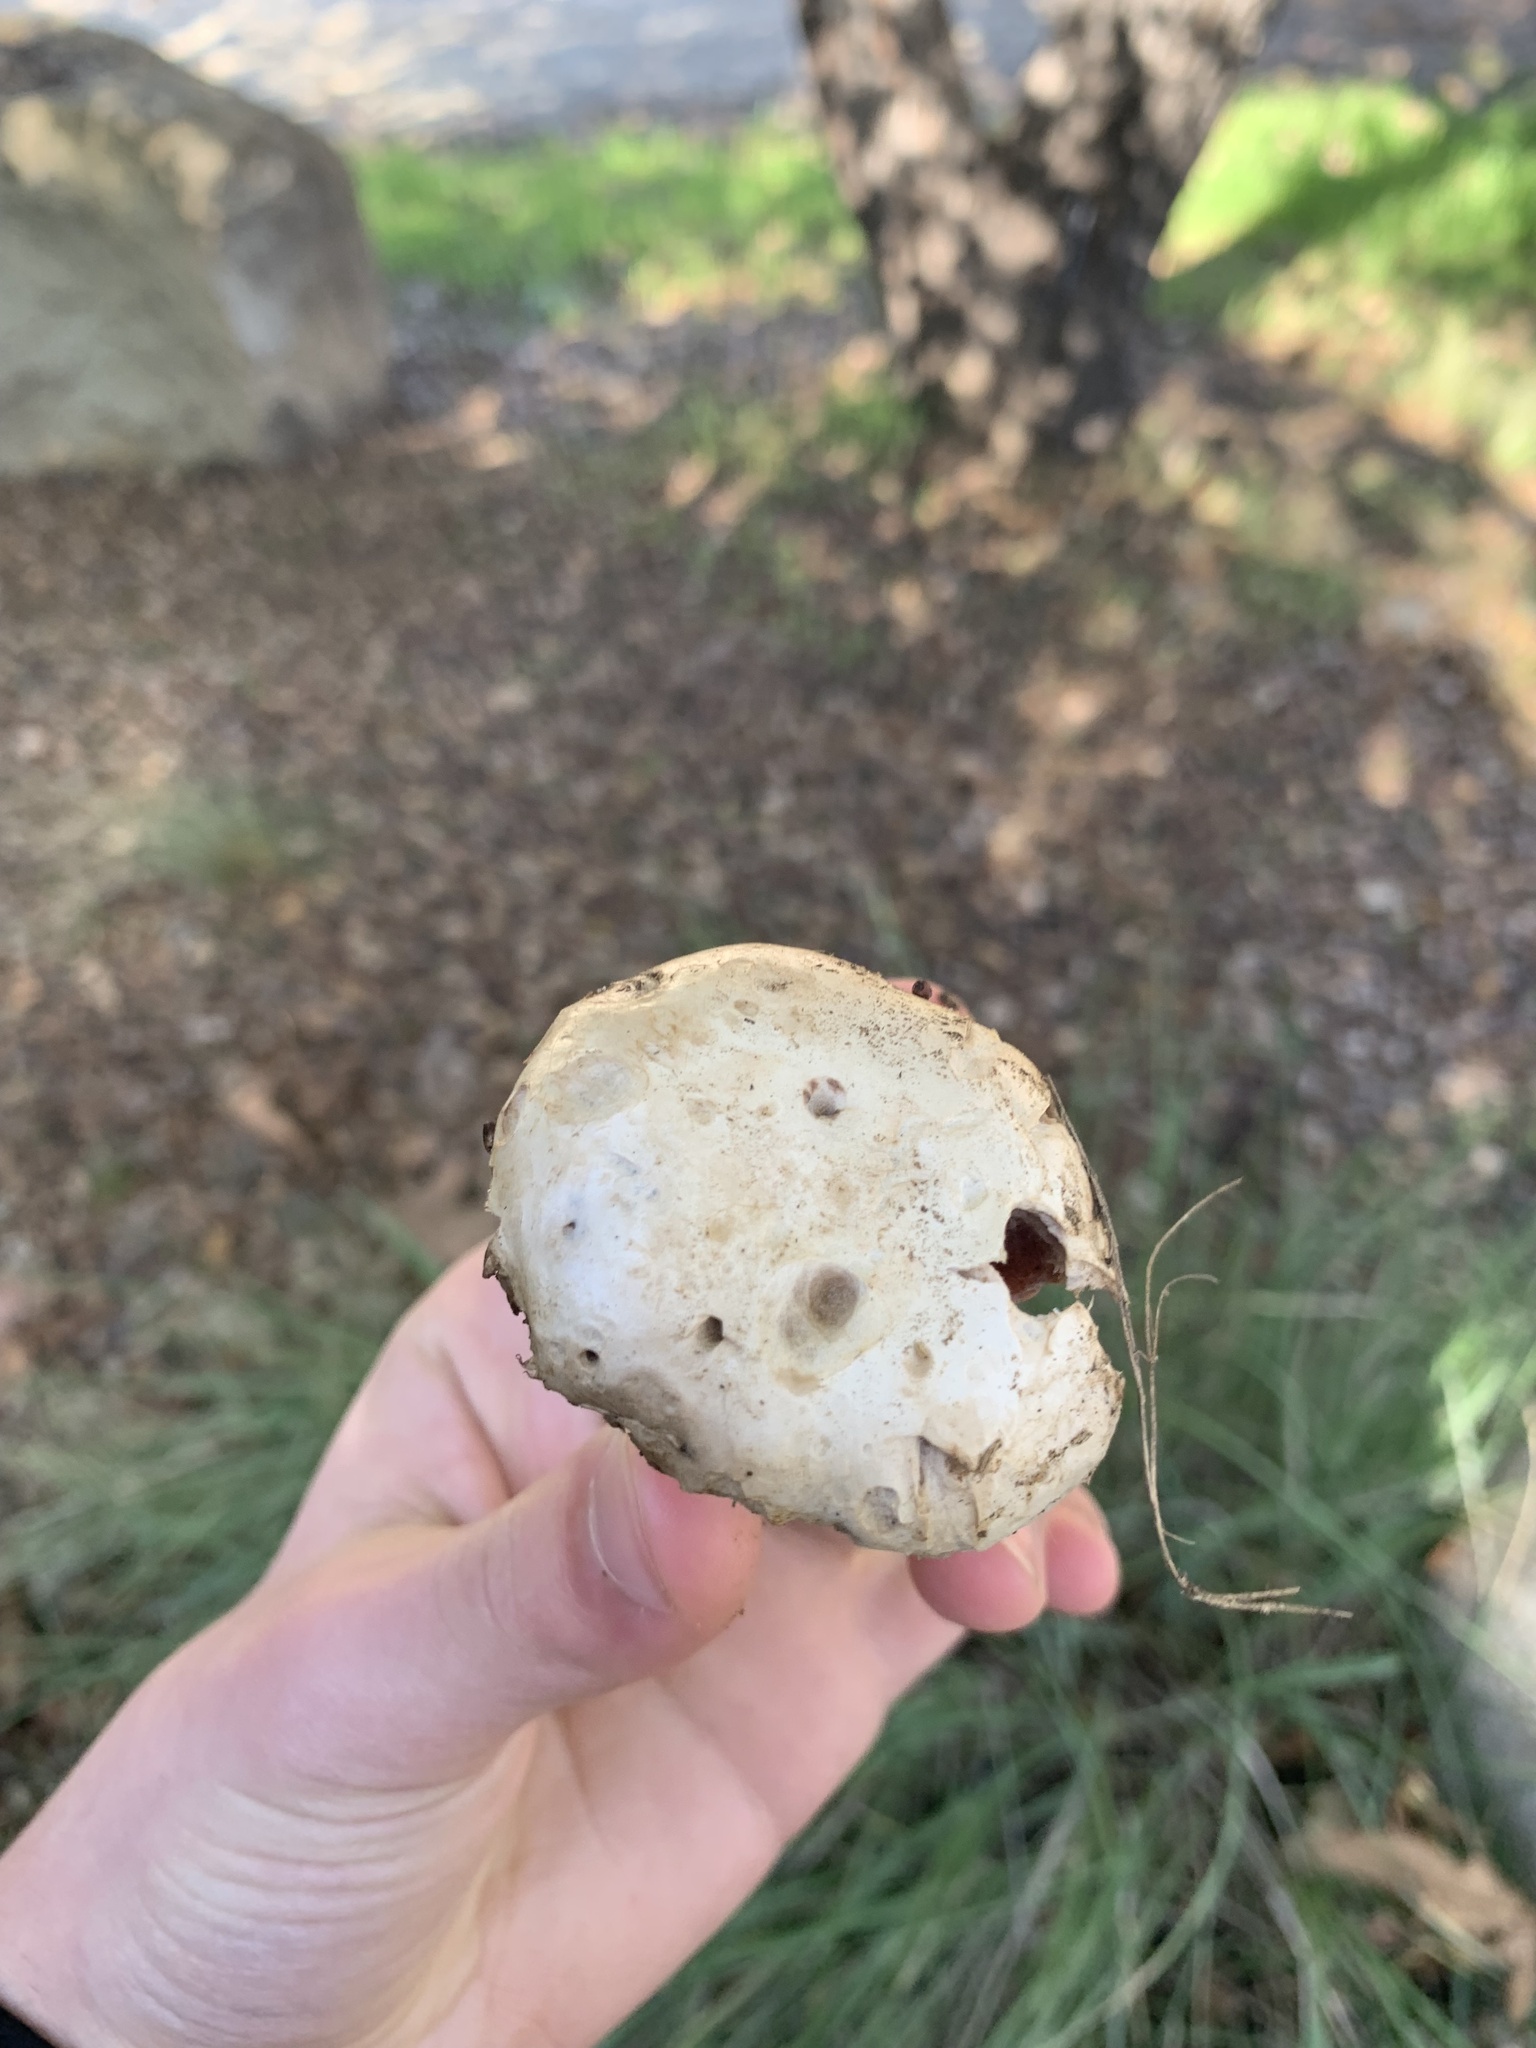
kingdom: Fungi
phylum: Basidiomycota
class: Agaricomycetes
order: Agaricales
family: Agaricaceae
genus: Agaricus
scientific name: Agaricus bitorquis
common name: Pavement mushroom
